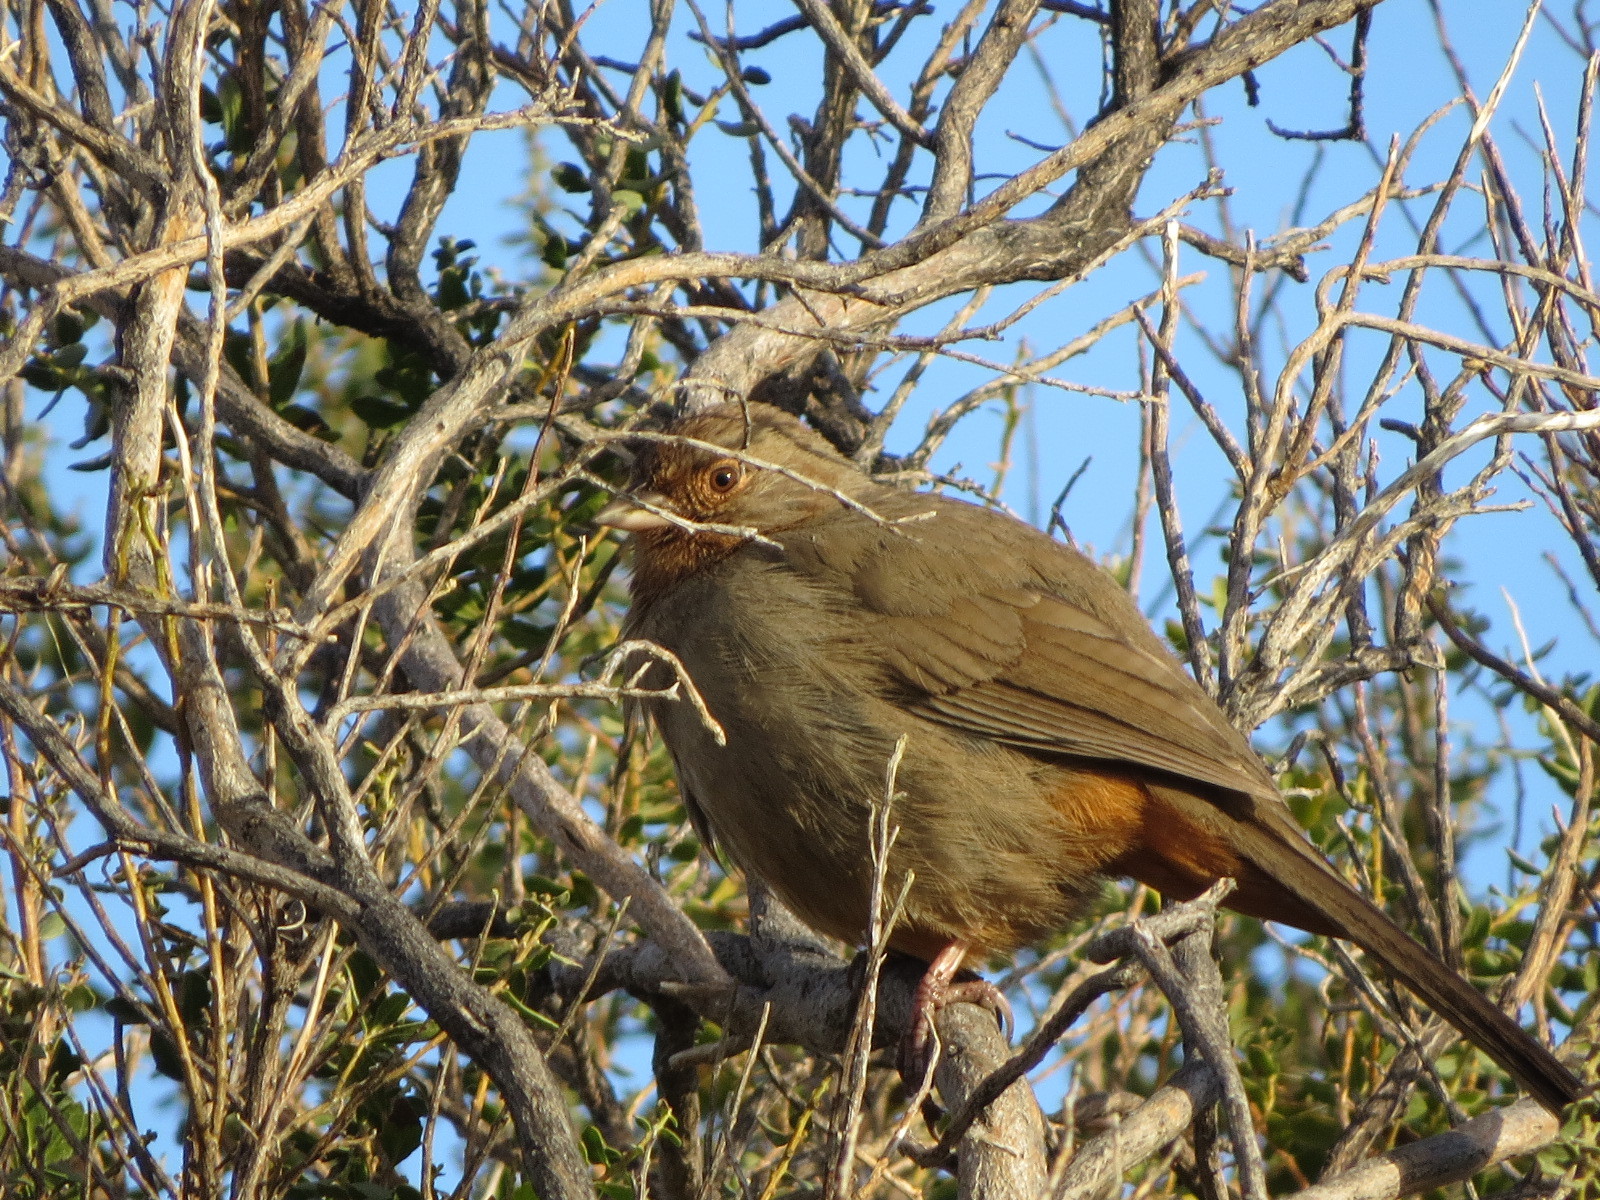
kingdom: Animalia
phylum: Chordata
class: Aves
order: Passeriformes
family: Passerellidae
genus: Melozone
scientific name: Melozone crissalis
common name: California towhee
